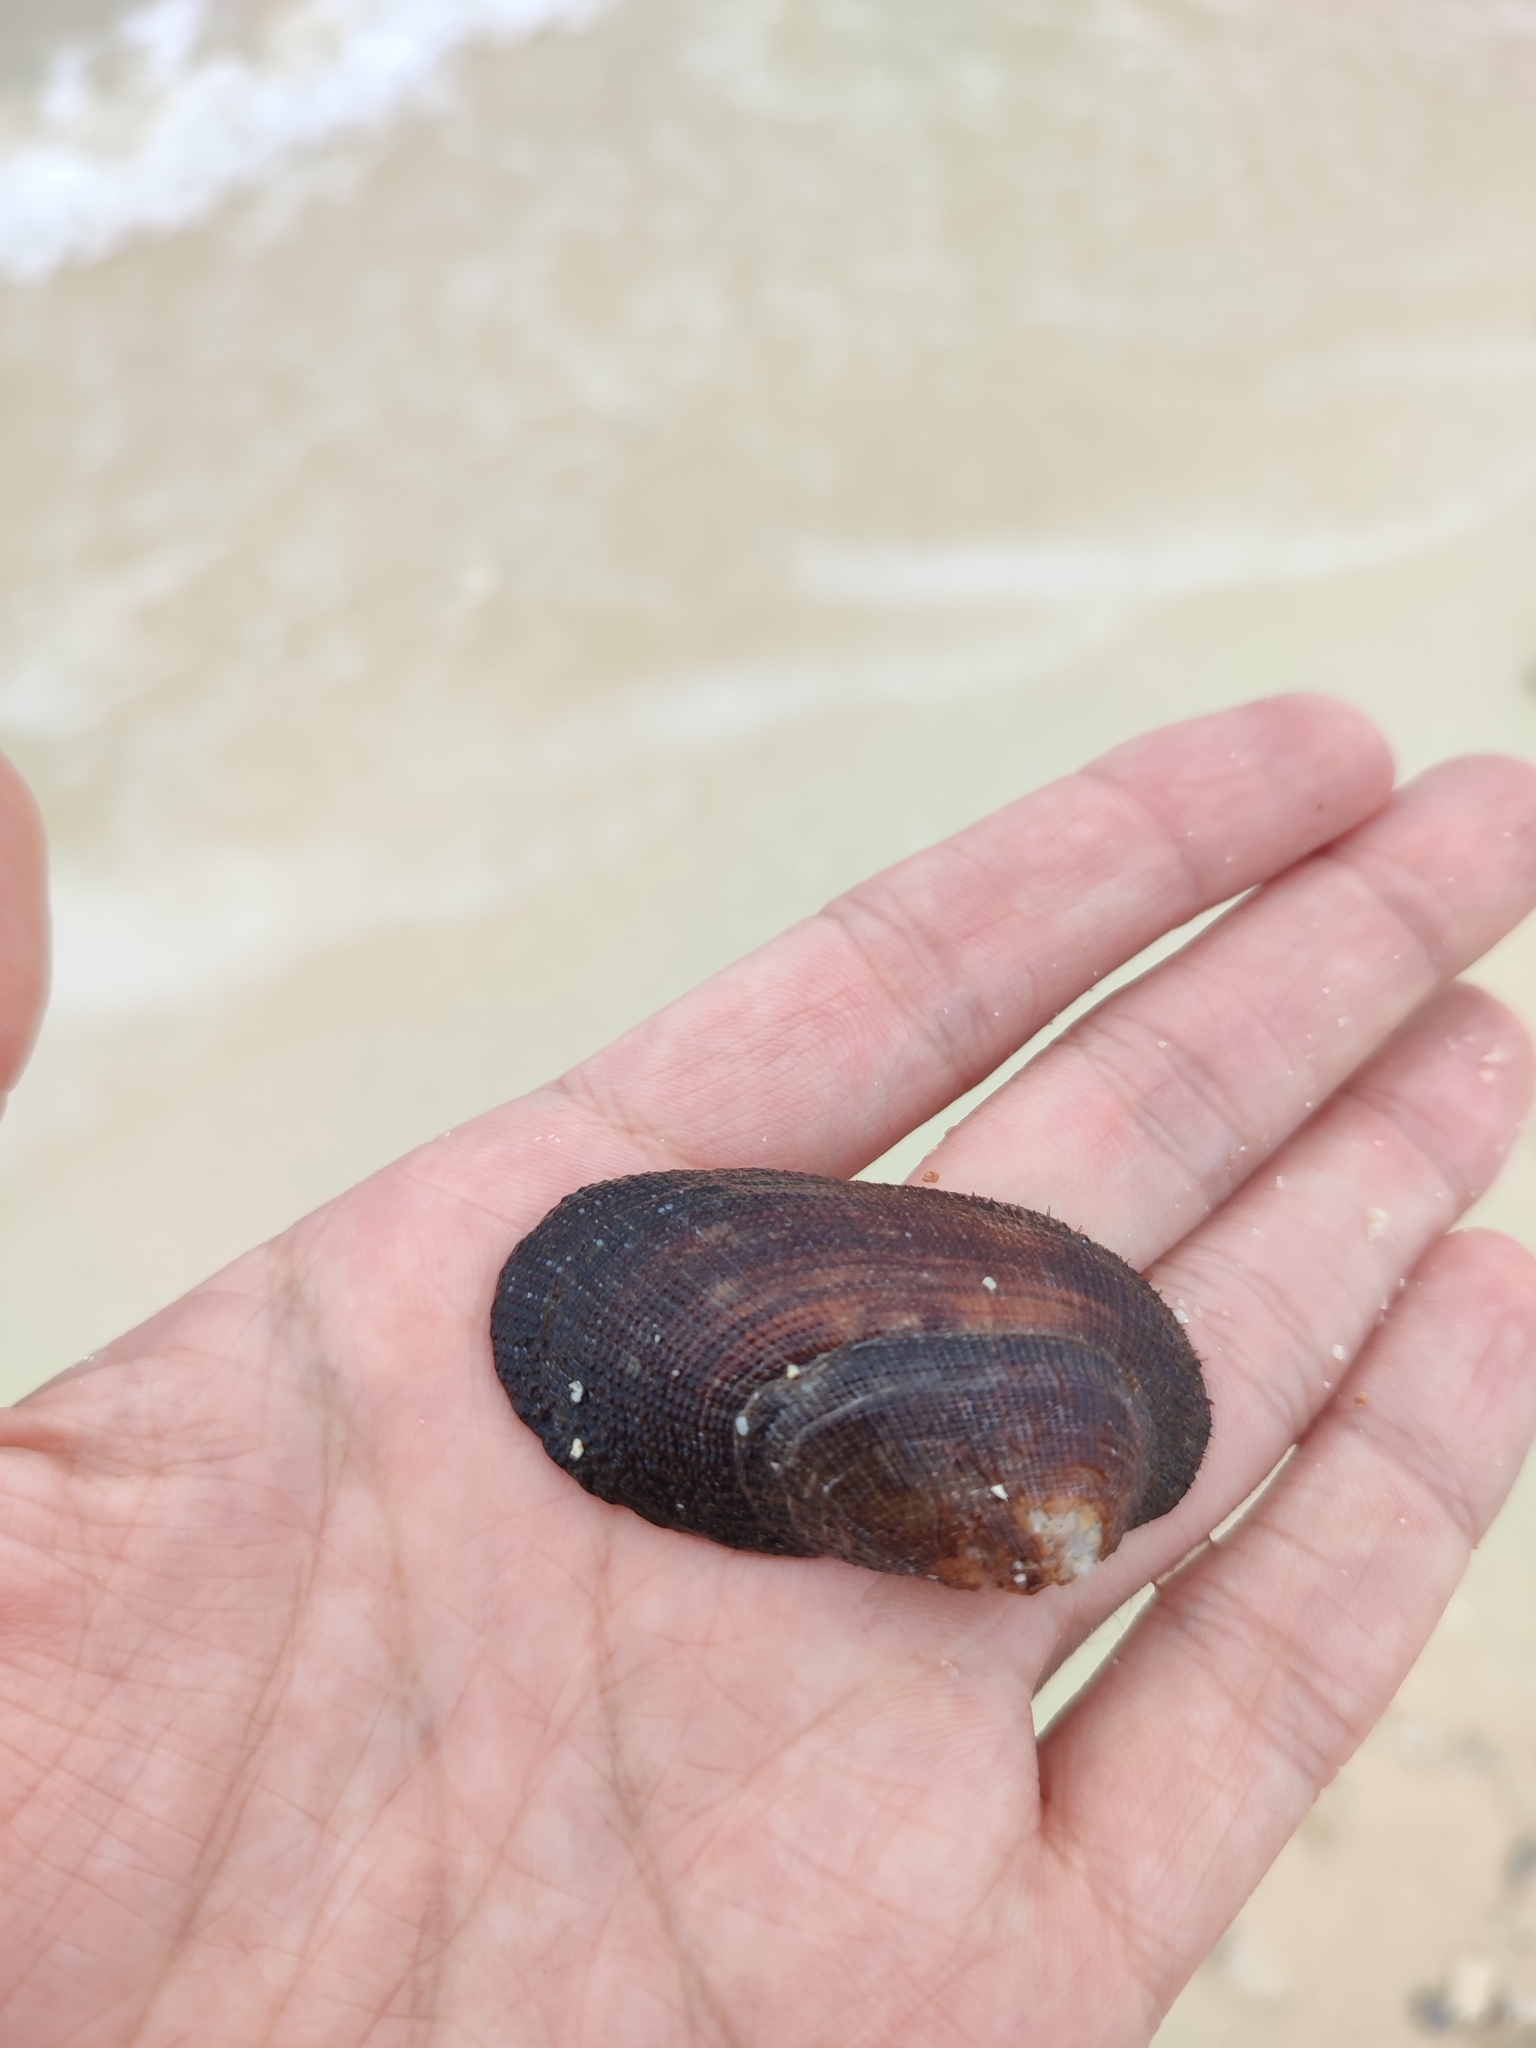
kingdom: Animalia
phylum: Mollusca
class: Bivalvia
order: Arcida
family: Arcidae
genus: Barbatia
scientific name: Barbatia amygdalumtostum
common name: Burnt-almond ark
